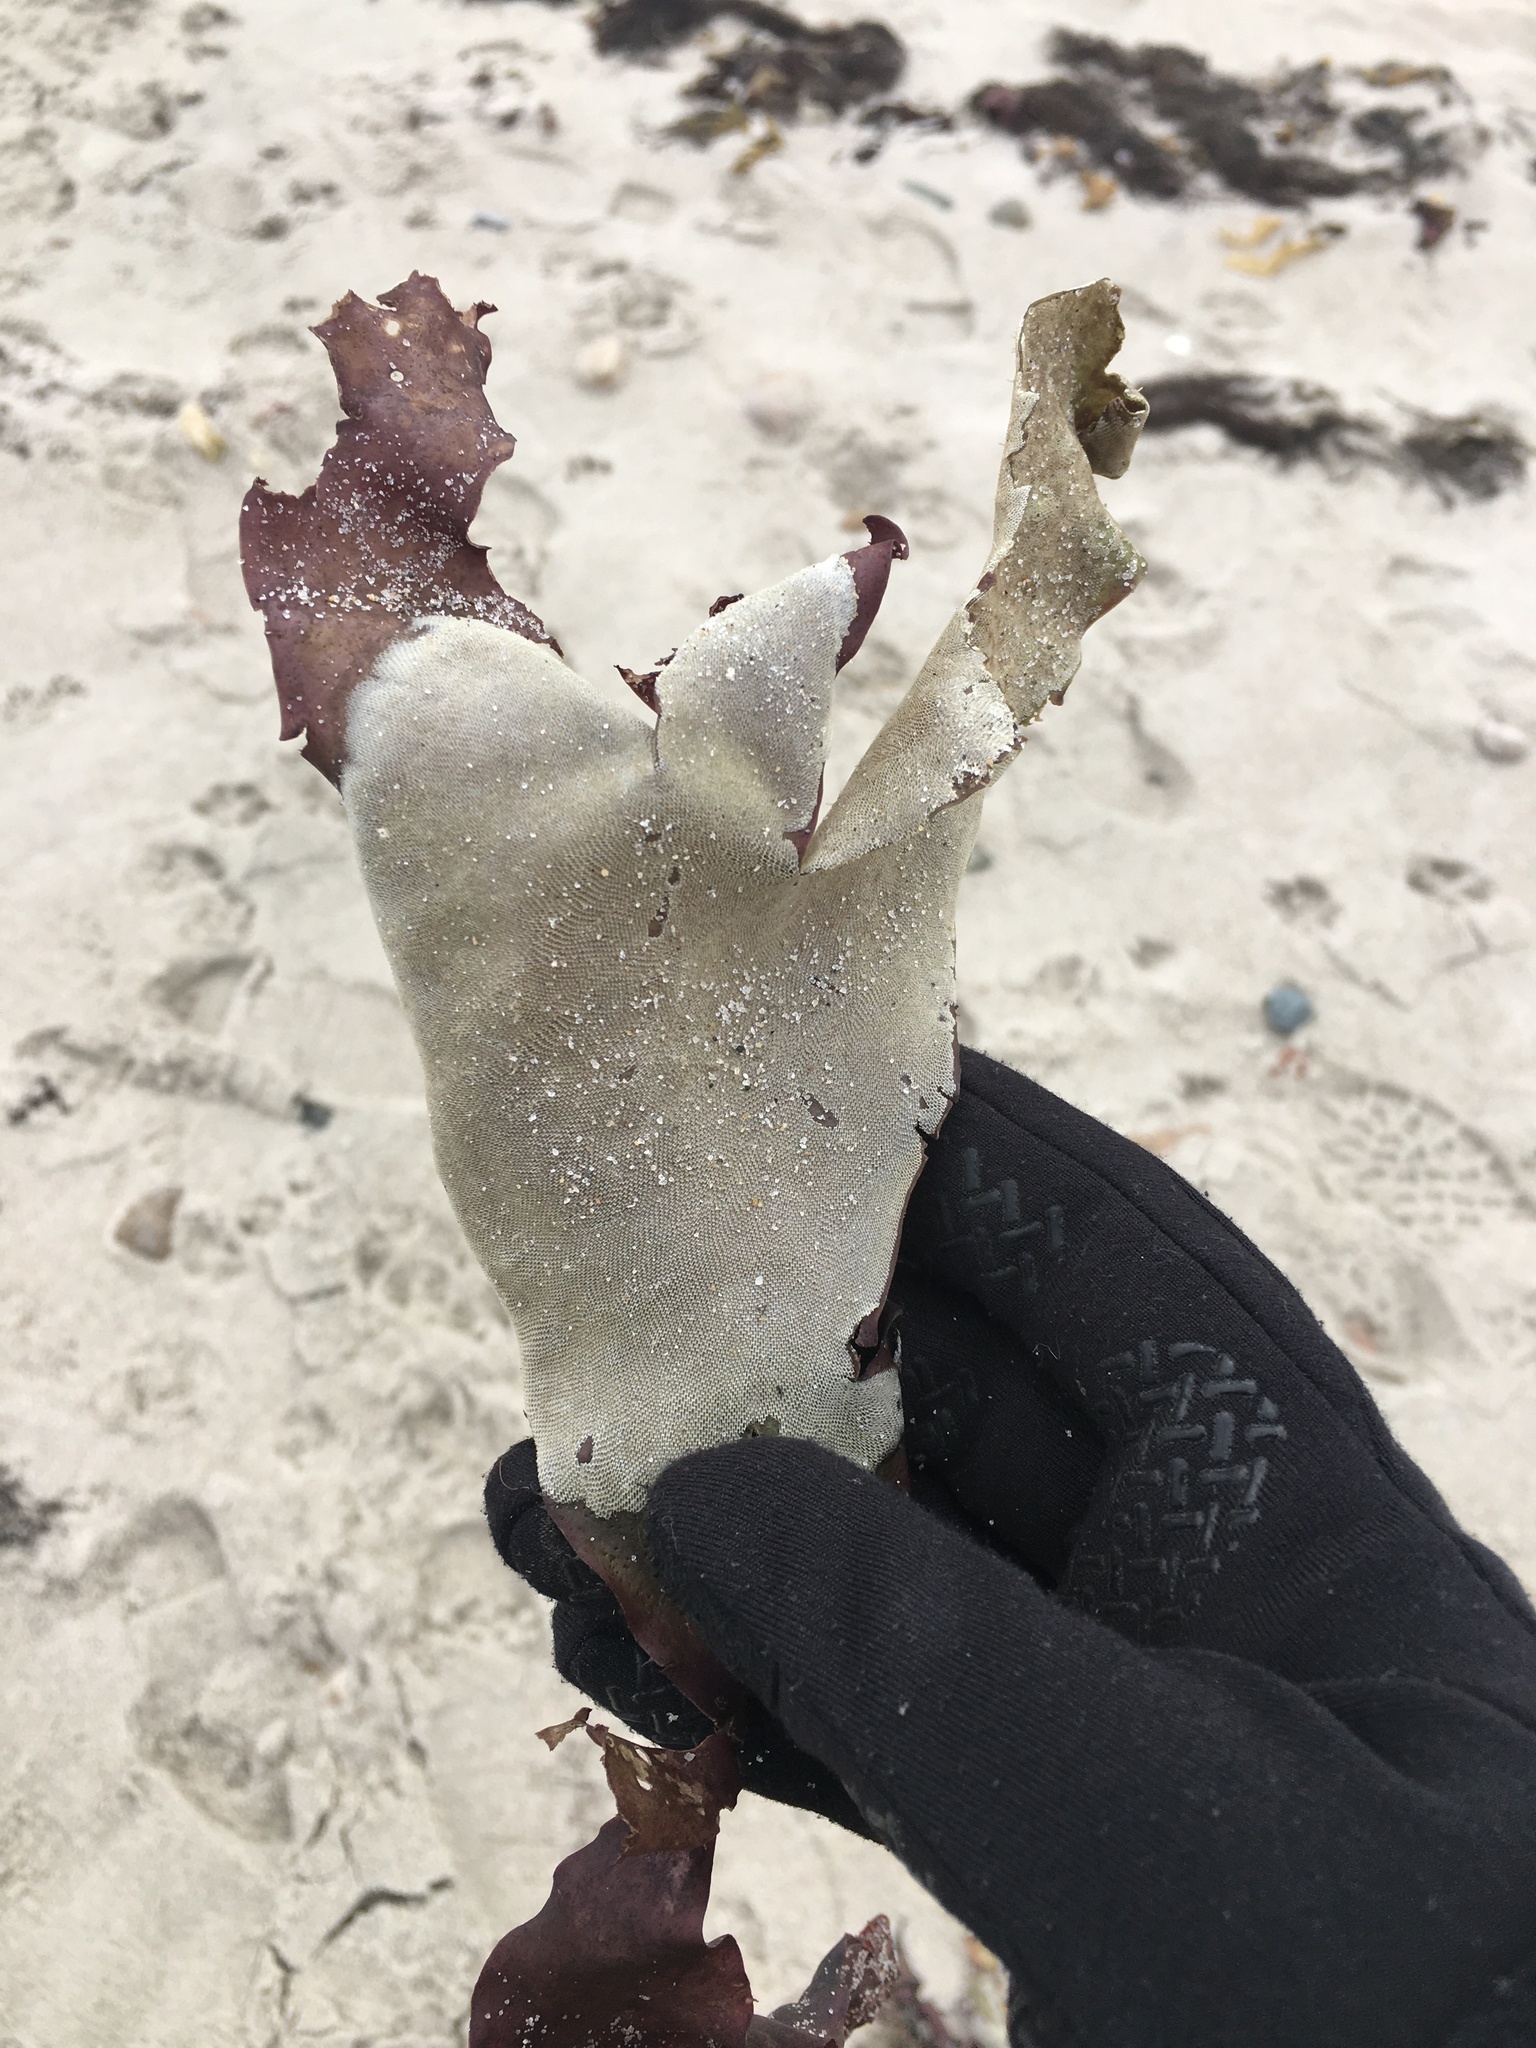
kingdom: Animalia
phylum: Bryozoa
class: Gymnolaemata
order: Cheilostomatida
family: Membraniporidae
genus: Membranipora
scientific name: Membranipora membranacea
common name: Sea mat
